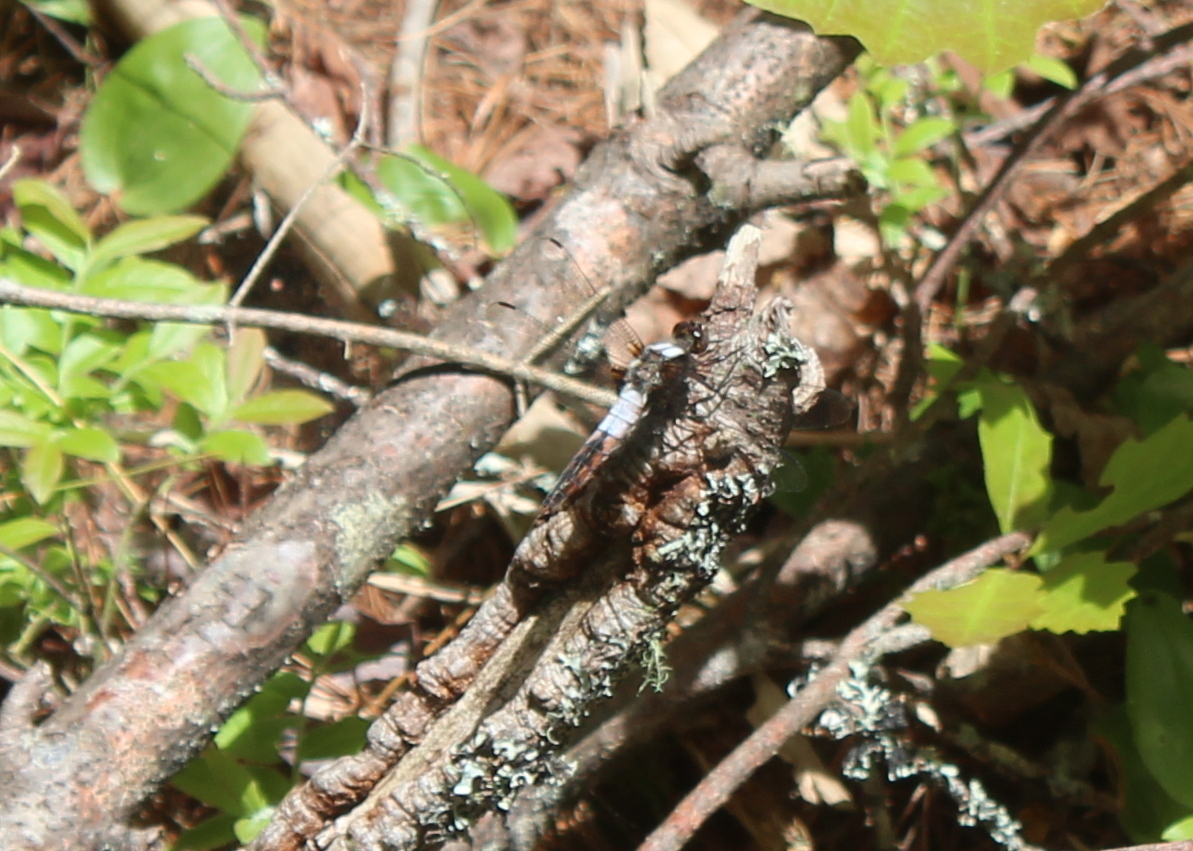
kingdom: Animalia
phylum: Arthropoda
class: Insecta
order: Odonata
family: Libellulidae
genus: Ladona
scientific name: Ladona julia
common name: Chalk-fronted corporal
